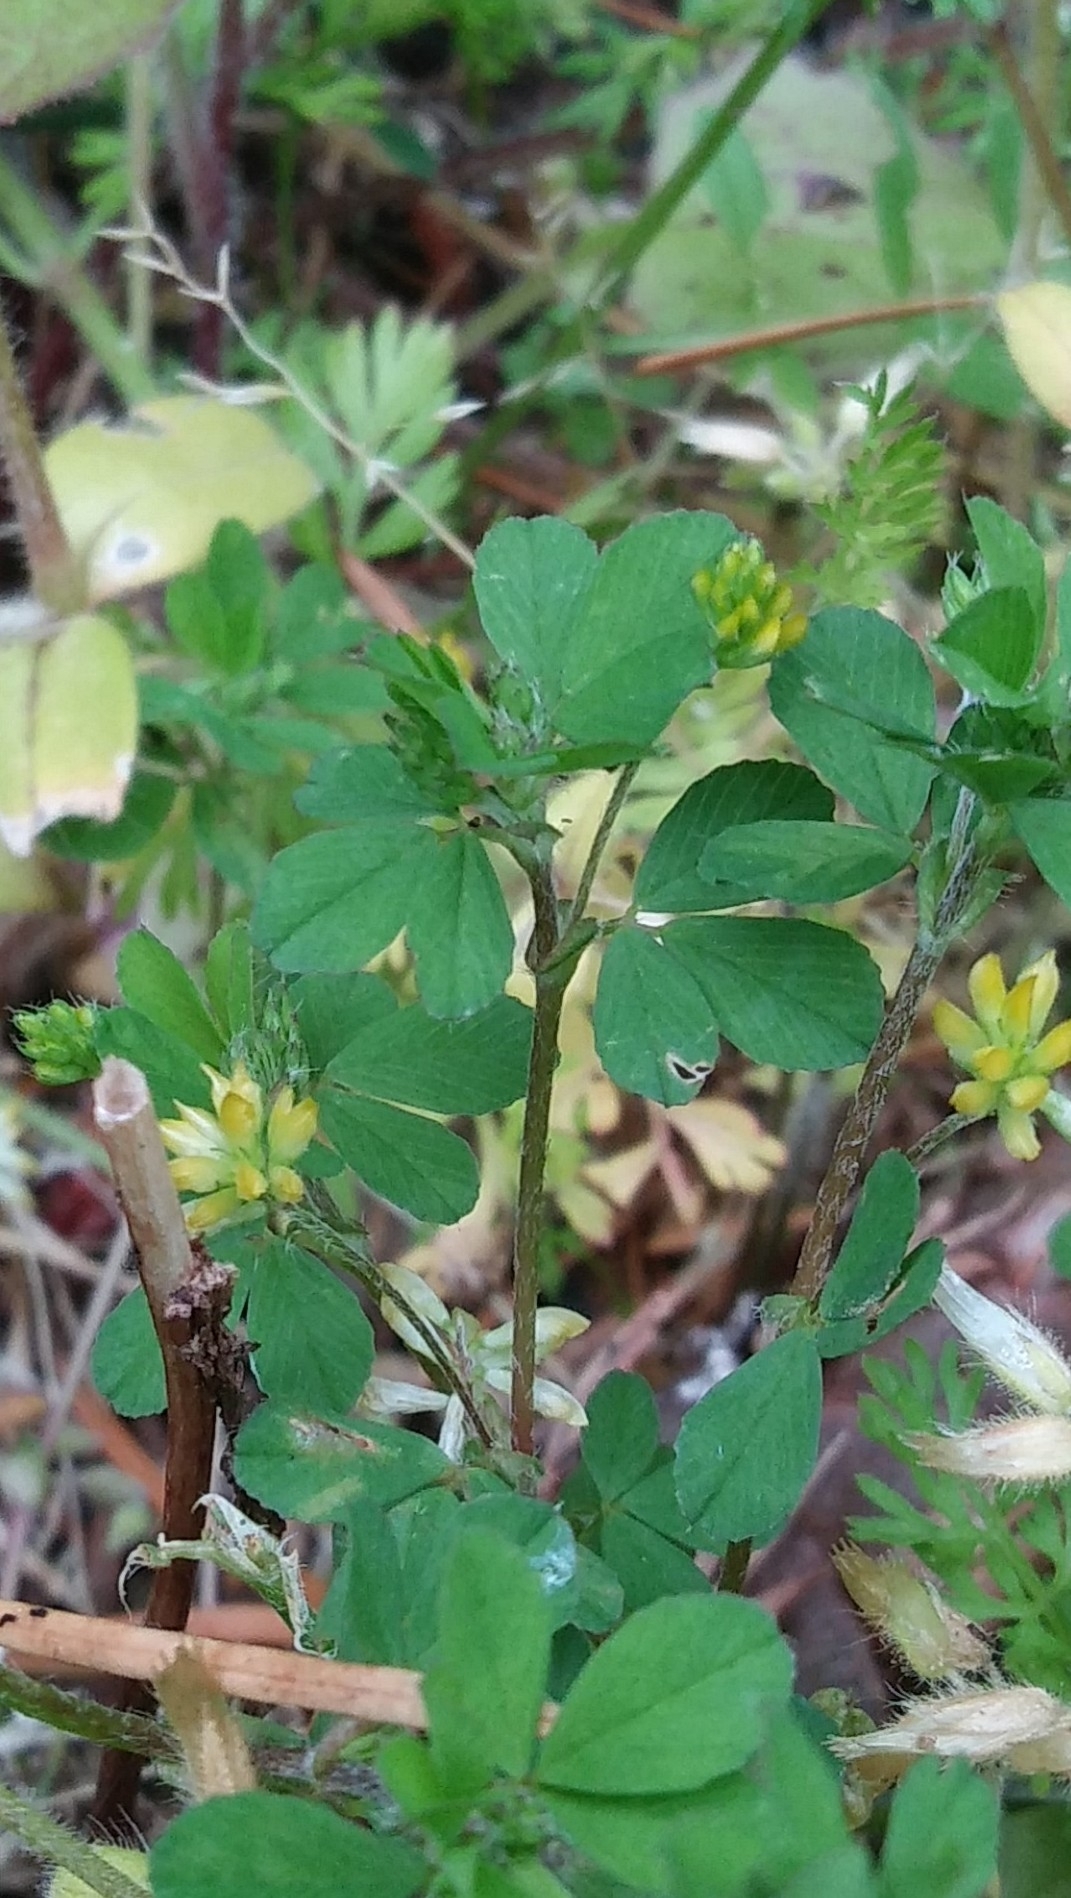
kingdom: Plantae
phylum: Tracheophyta
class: Magnoliopsida
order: Fabales
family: Fabaceae
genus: Trifolium
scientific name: Trifolium dubium
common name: Suckling clover
